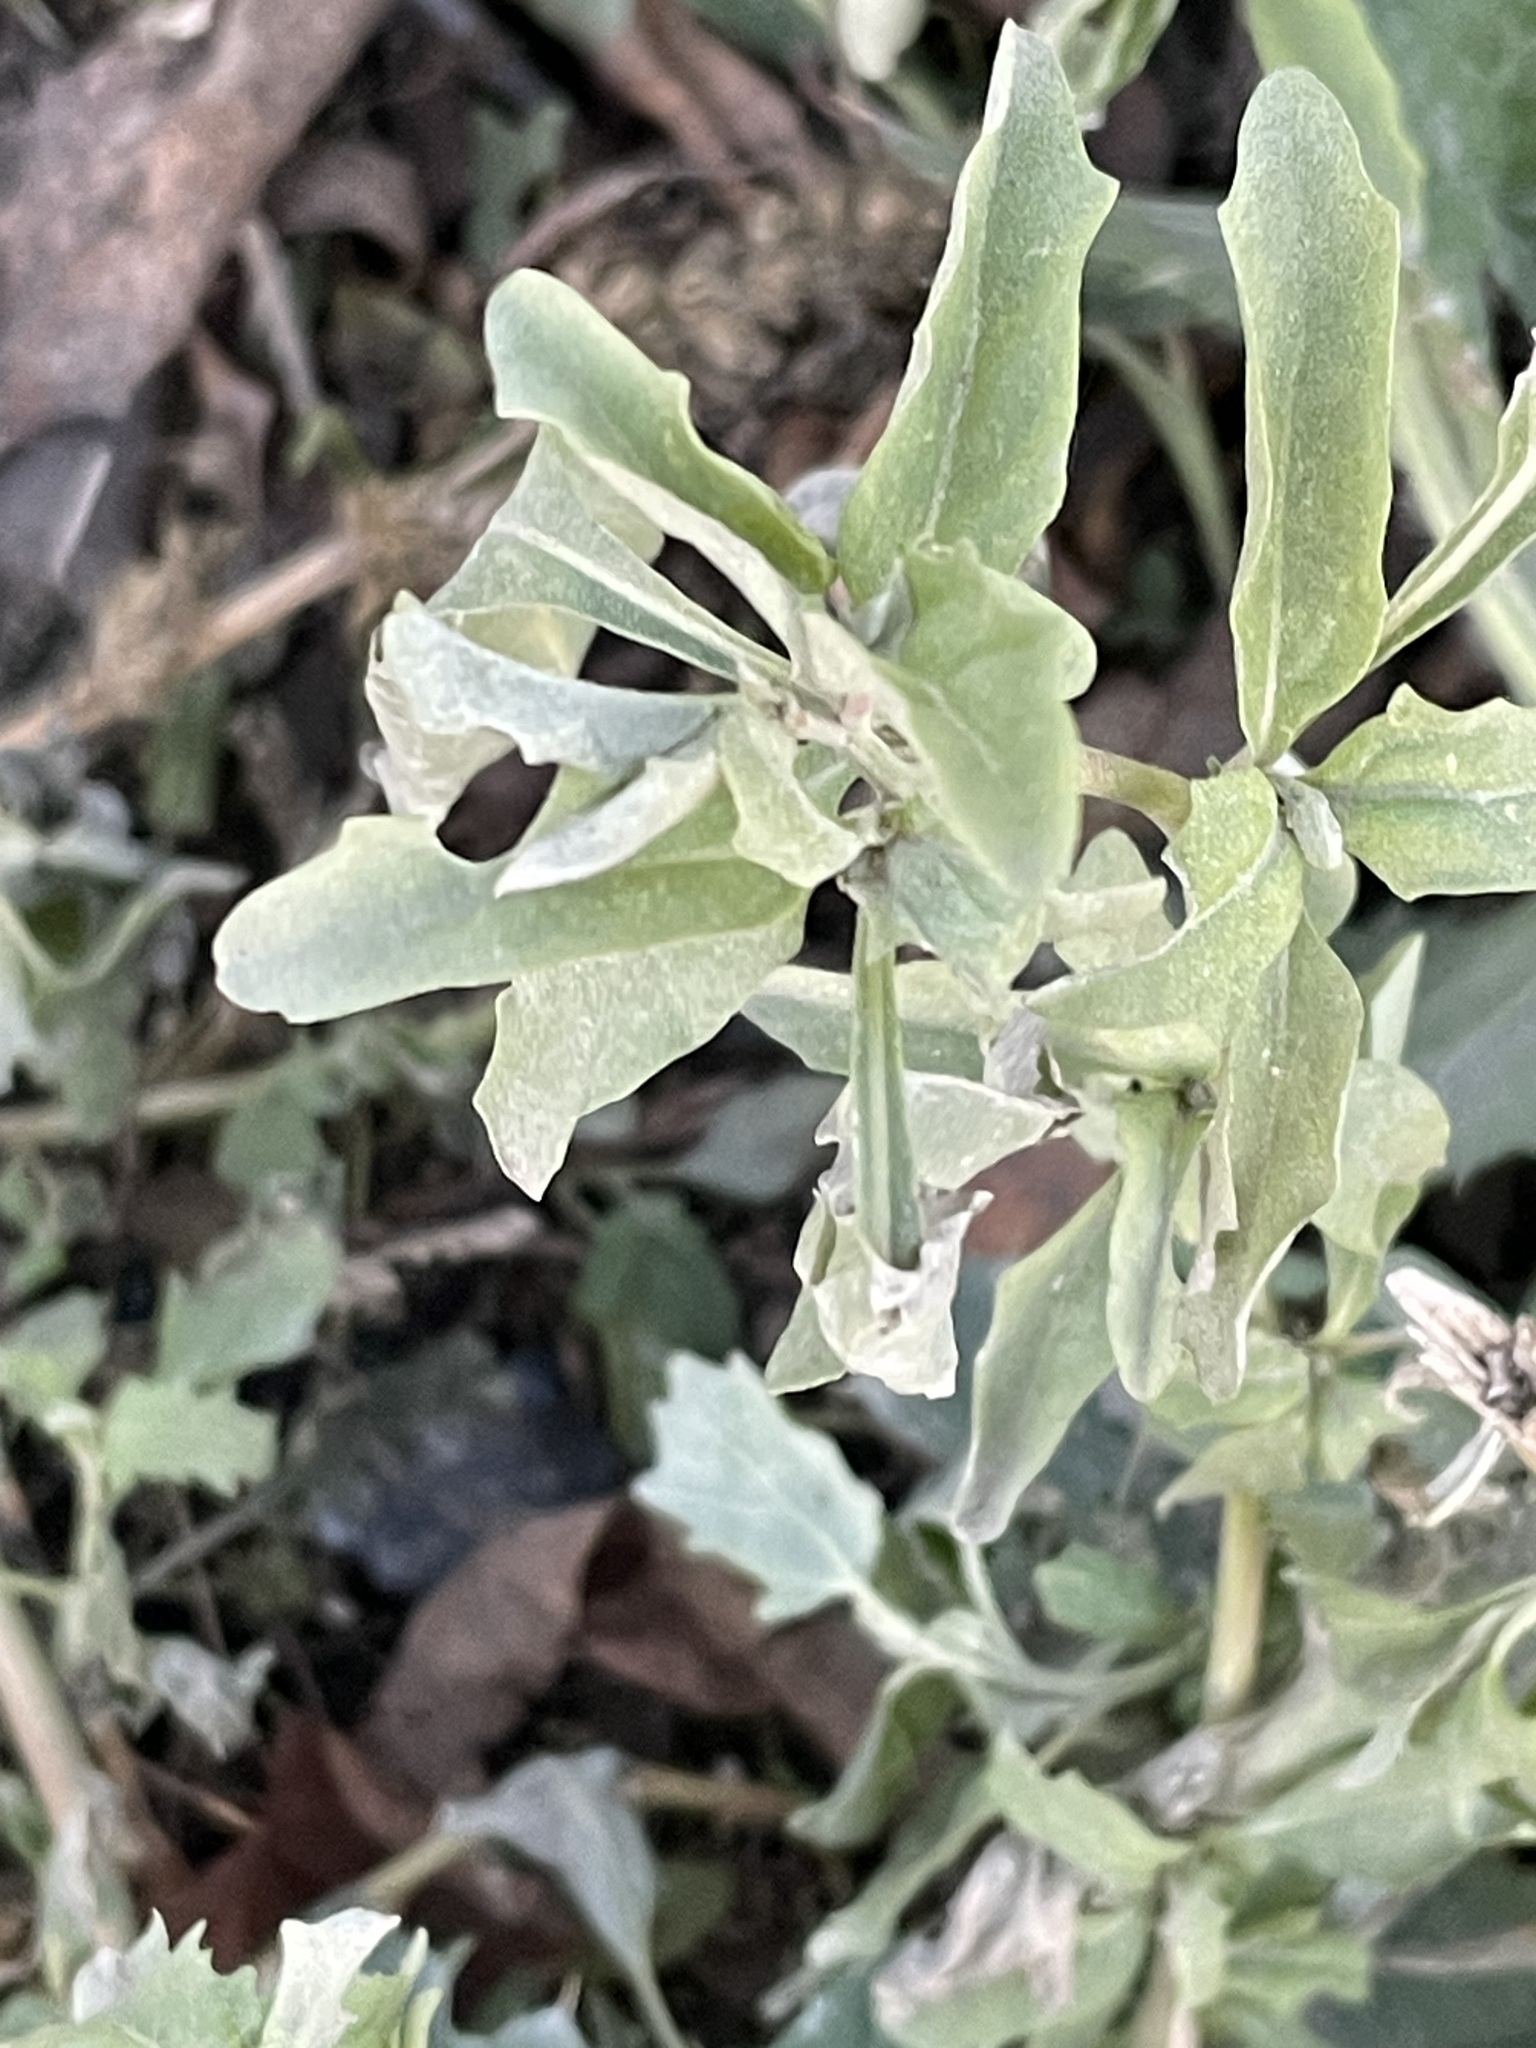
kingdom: Plantae
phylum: Tracheophyta
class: Magnoliopsida
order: Caryophyllales
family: Amaranthaceae
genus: Atriplex
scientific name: Atriplex tatarica
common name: Tatarian orache
